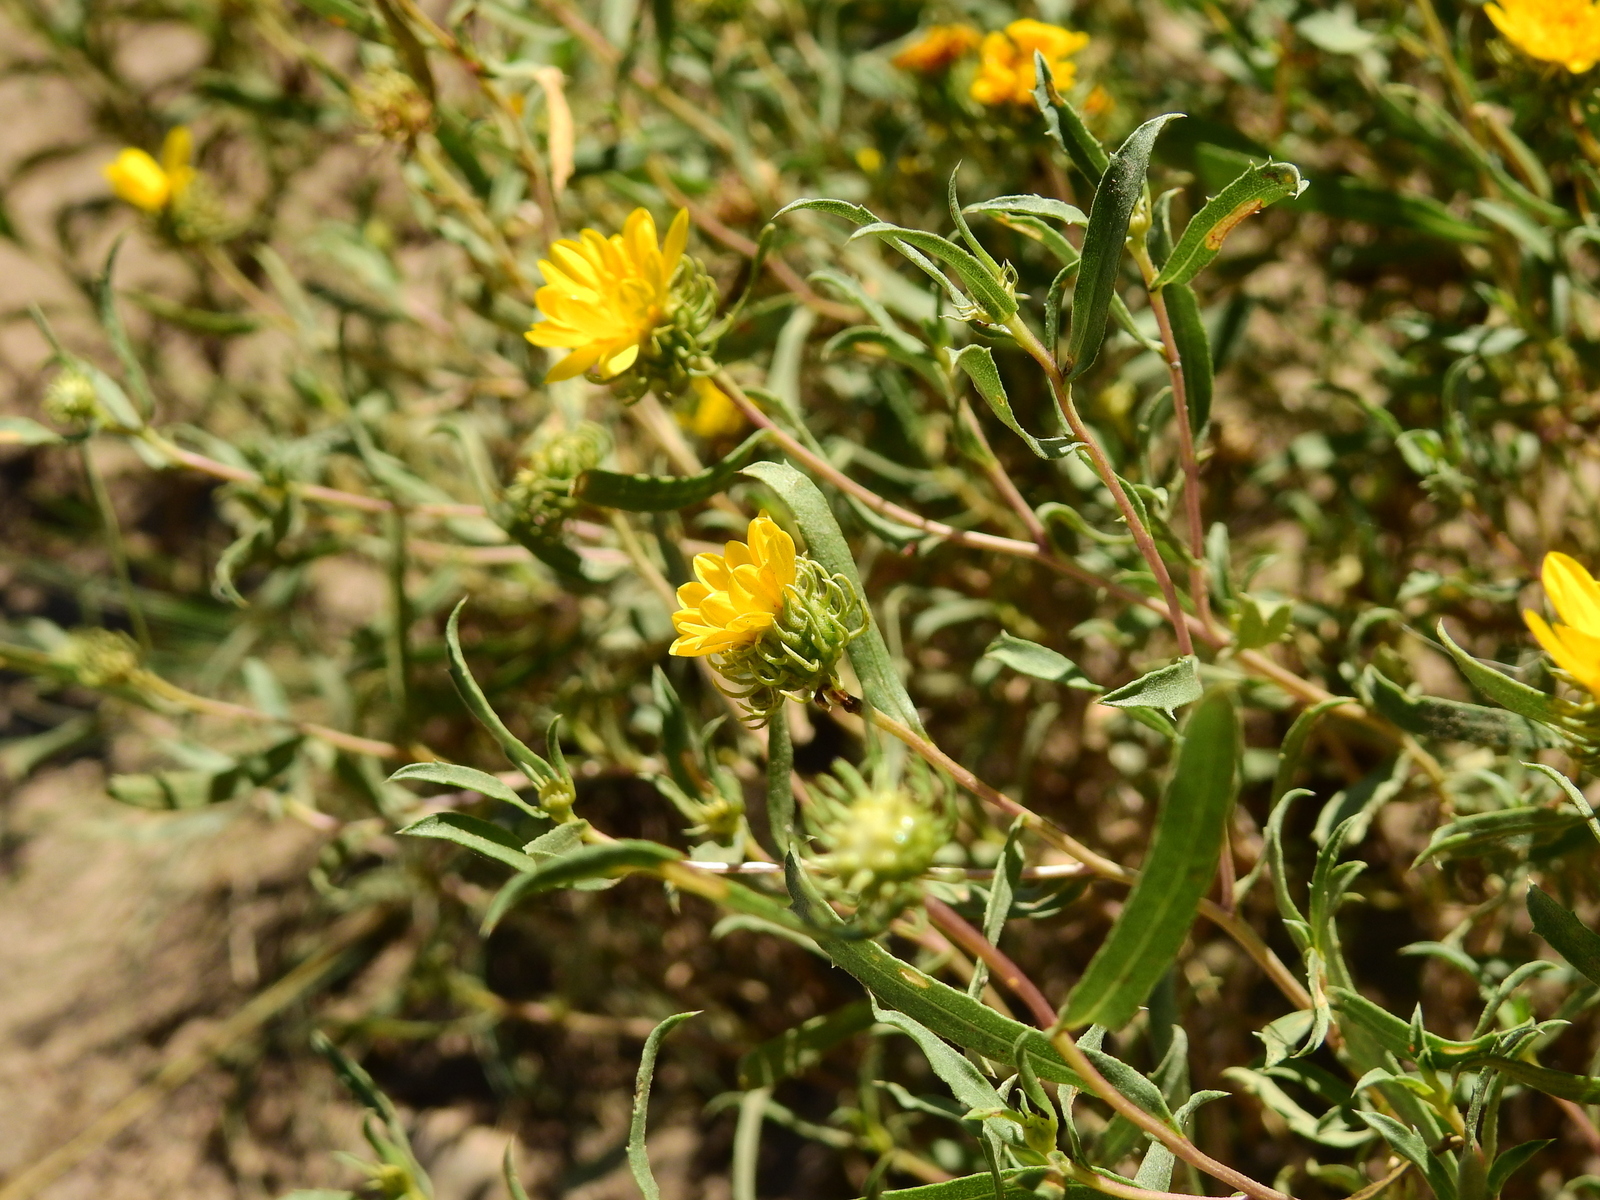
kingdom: Plantae
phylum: Tracheophyta
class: Magnoliopsida
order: Asterales
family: Asteraceae
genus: Grindelia
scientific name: Grindelia pulchella
